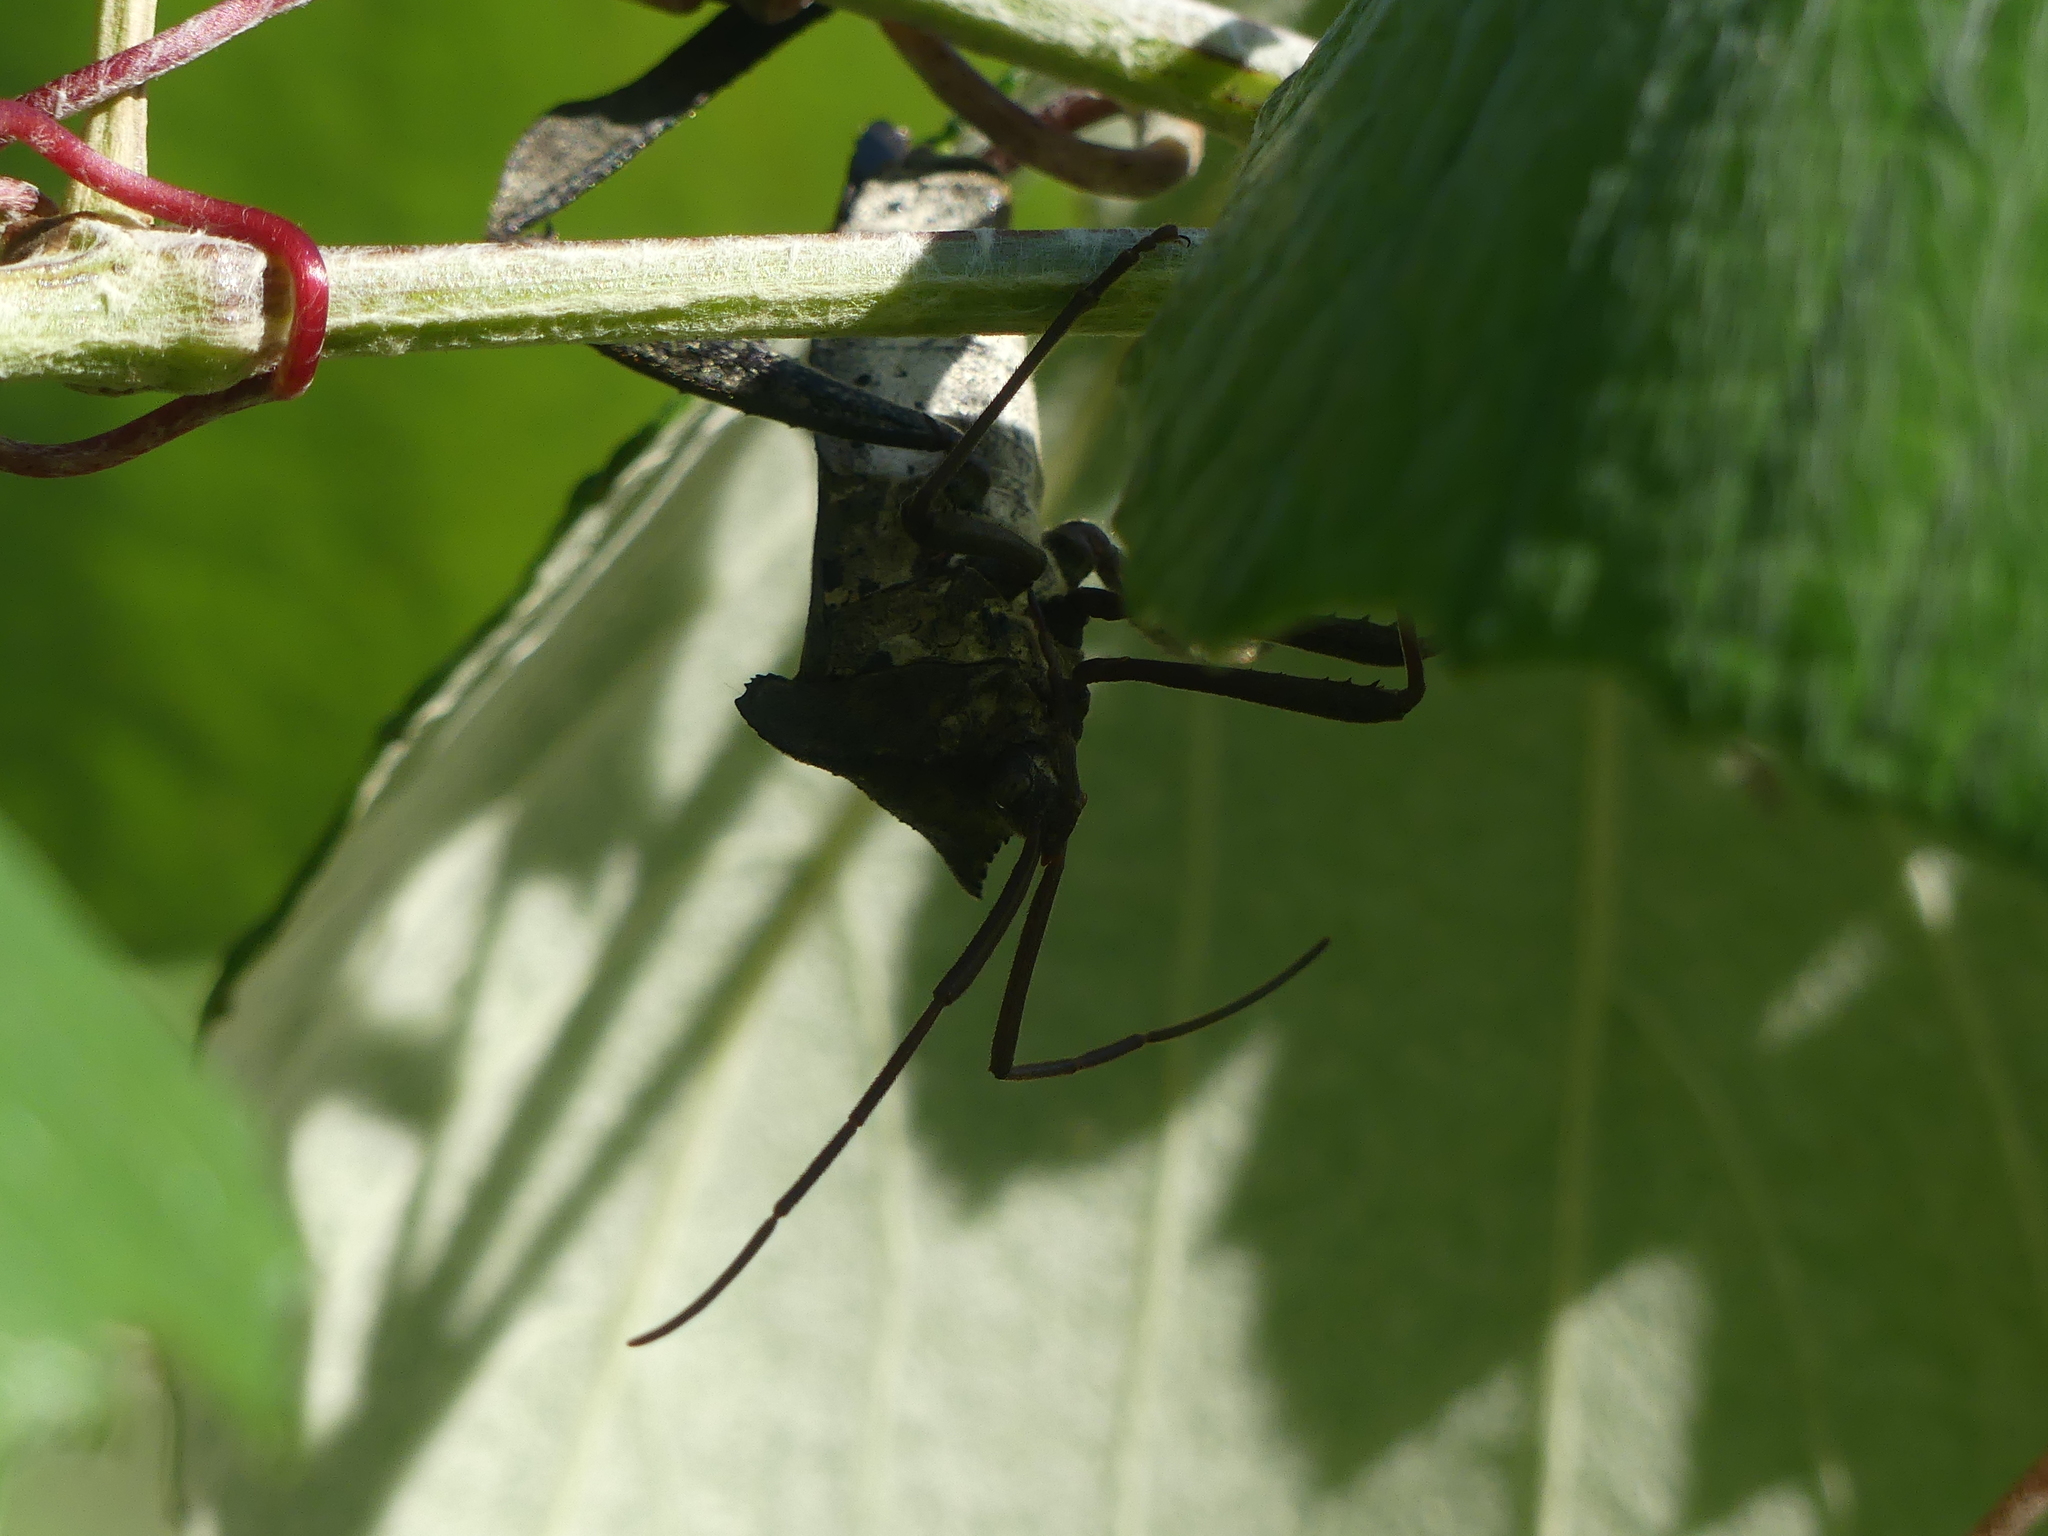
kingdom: Animalia
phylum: Arthropoda
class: Insecta
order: Hemiptera
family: Coreidae
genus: Acanthocephala
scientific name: Acanthocephala declivis
